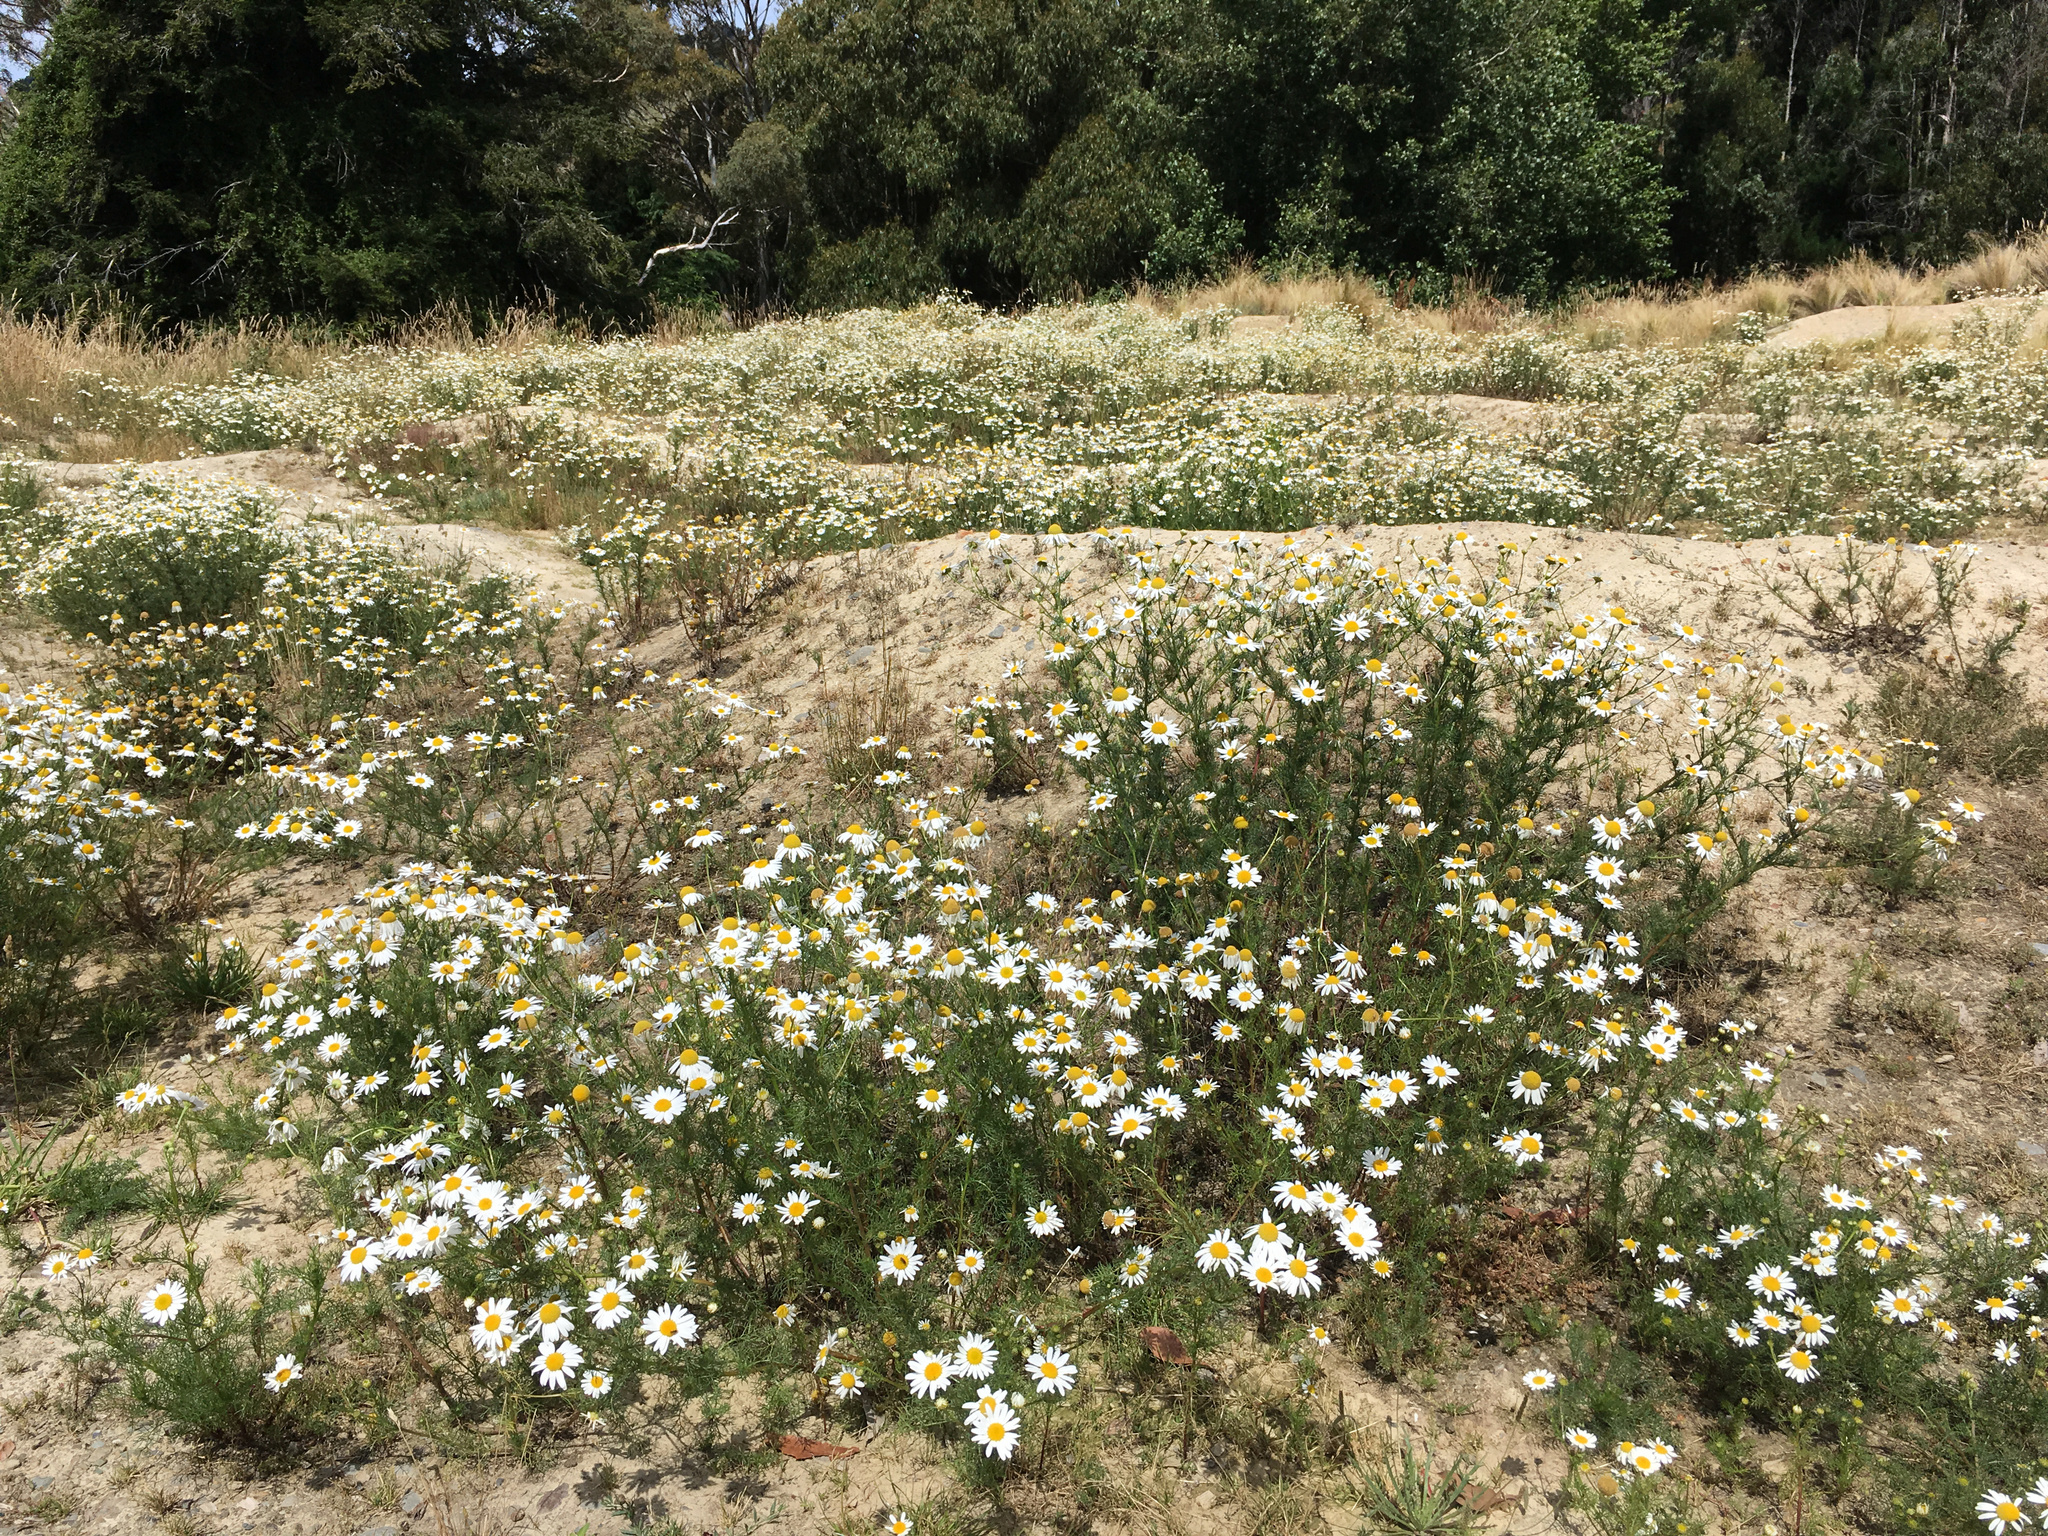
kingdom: Plantae
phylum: Tracheophyta
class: Magnoliopsida
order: Asterales
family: Asteraceae
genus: Tripleurospermum
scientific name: Tripleurospermum inodorum
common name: Scentless mayweed
